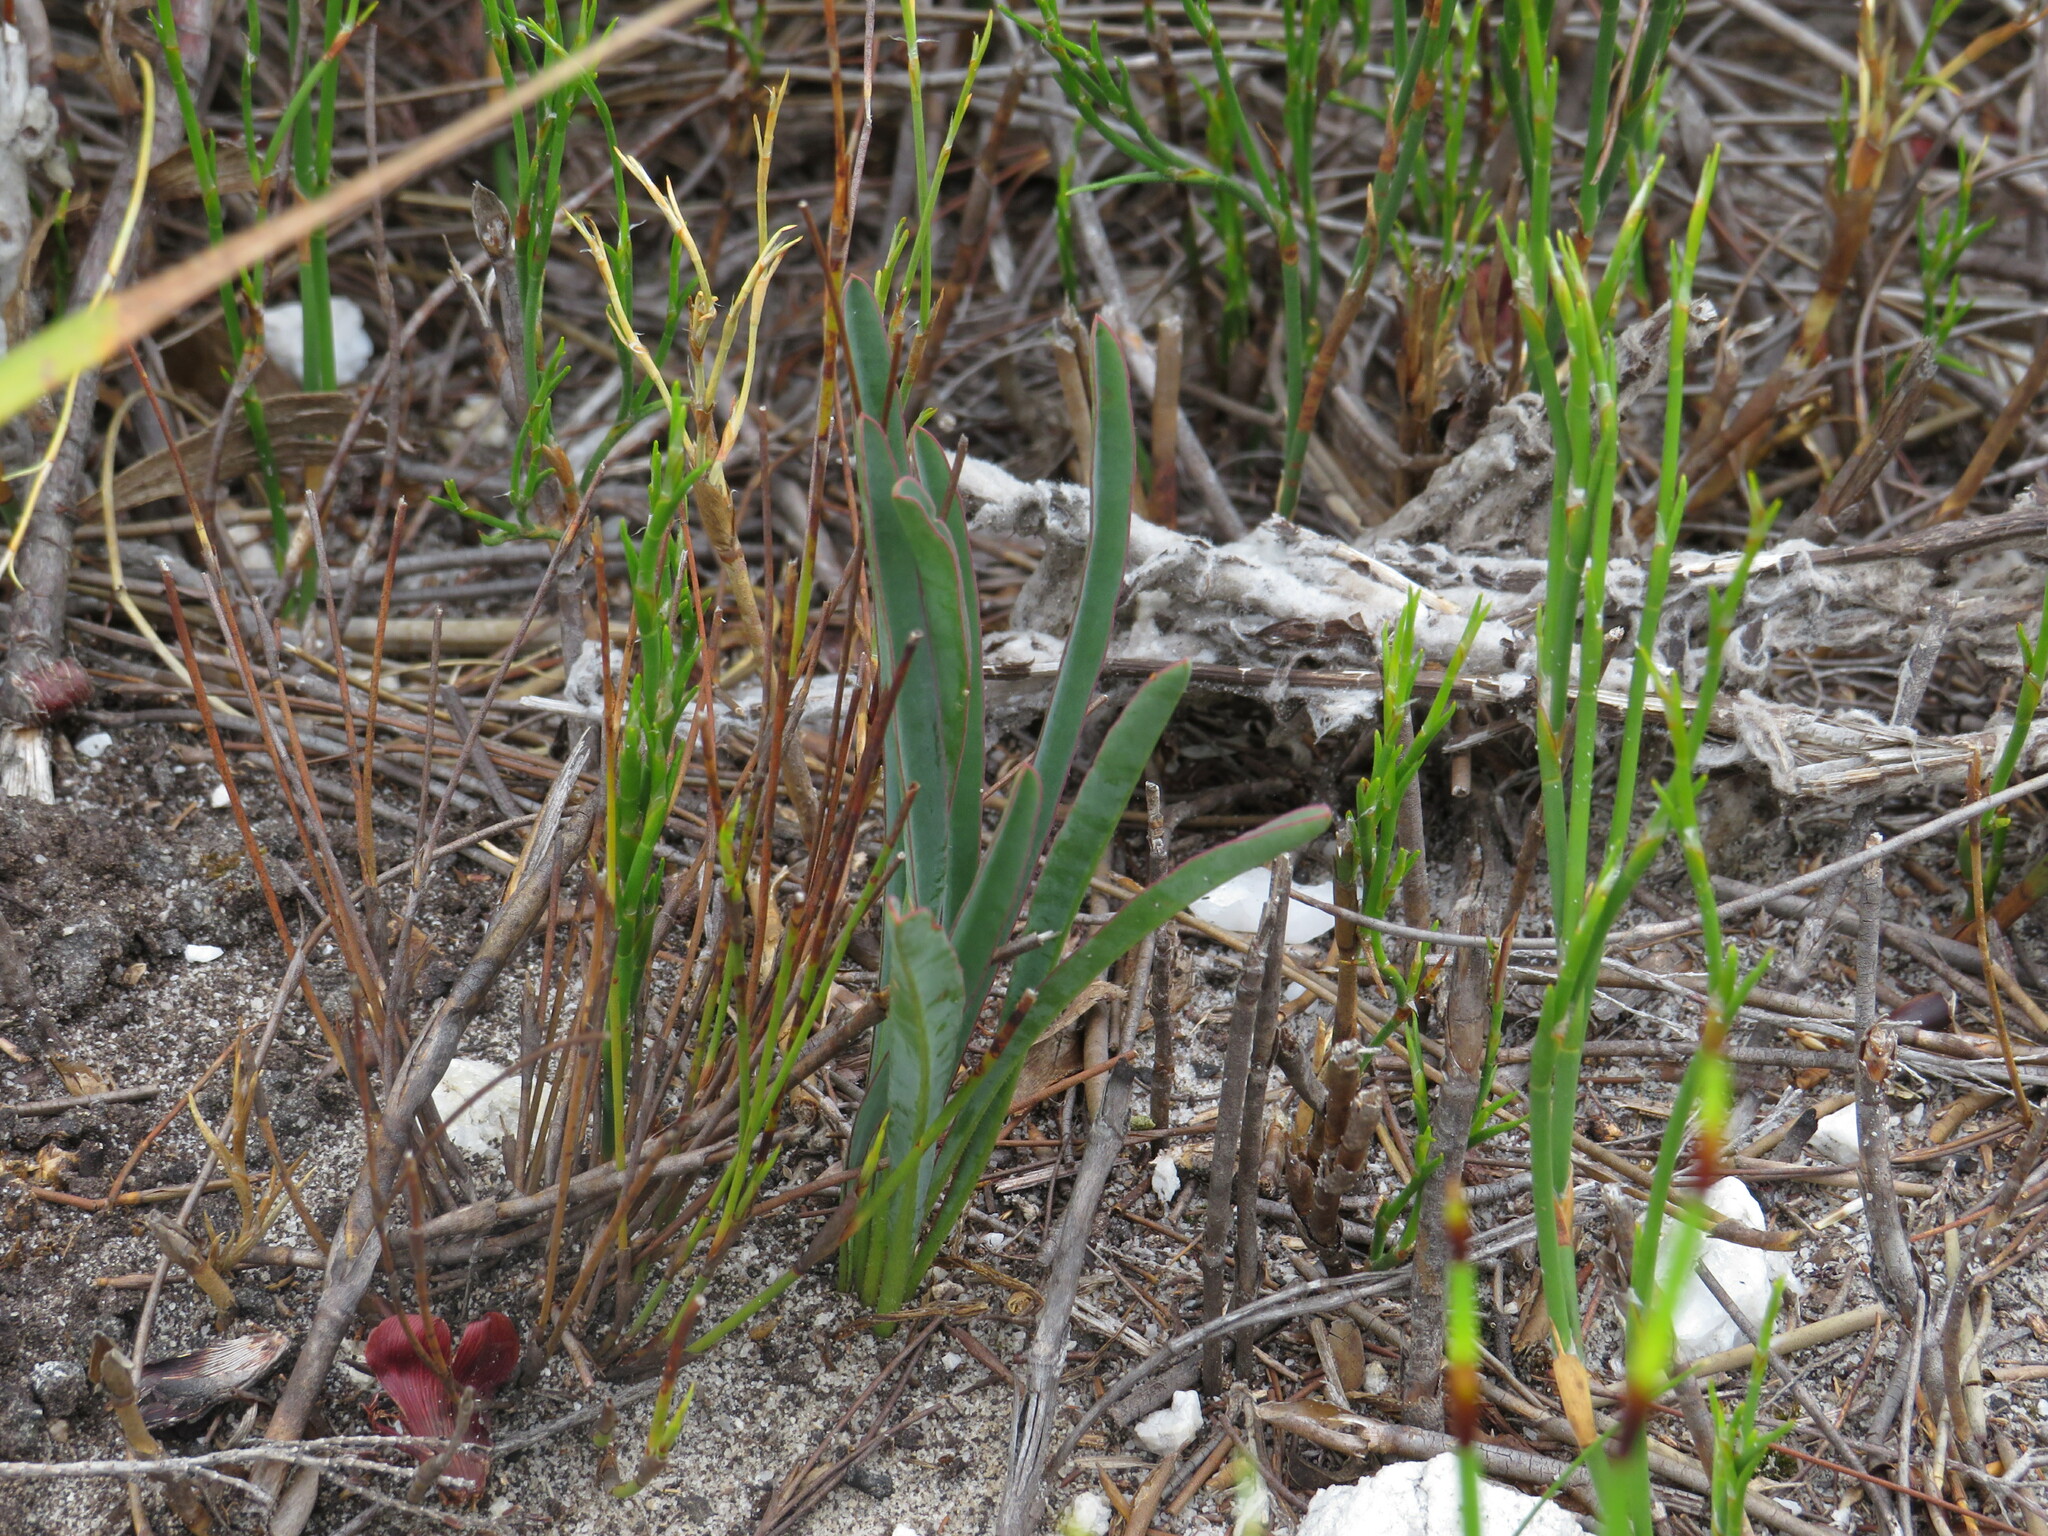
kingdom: Plantae
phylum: Tracheophyta
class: Magnoliopsida
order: Malpighiales
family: Euphorbiaceae
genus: Euphorbia
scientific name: Euphorbia silenifolia
